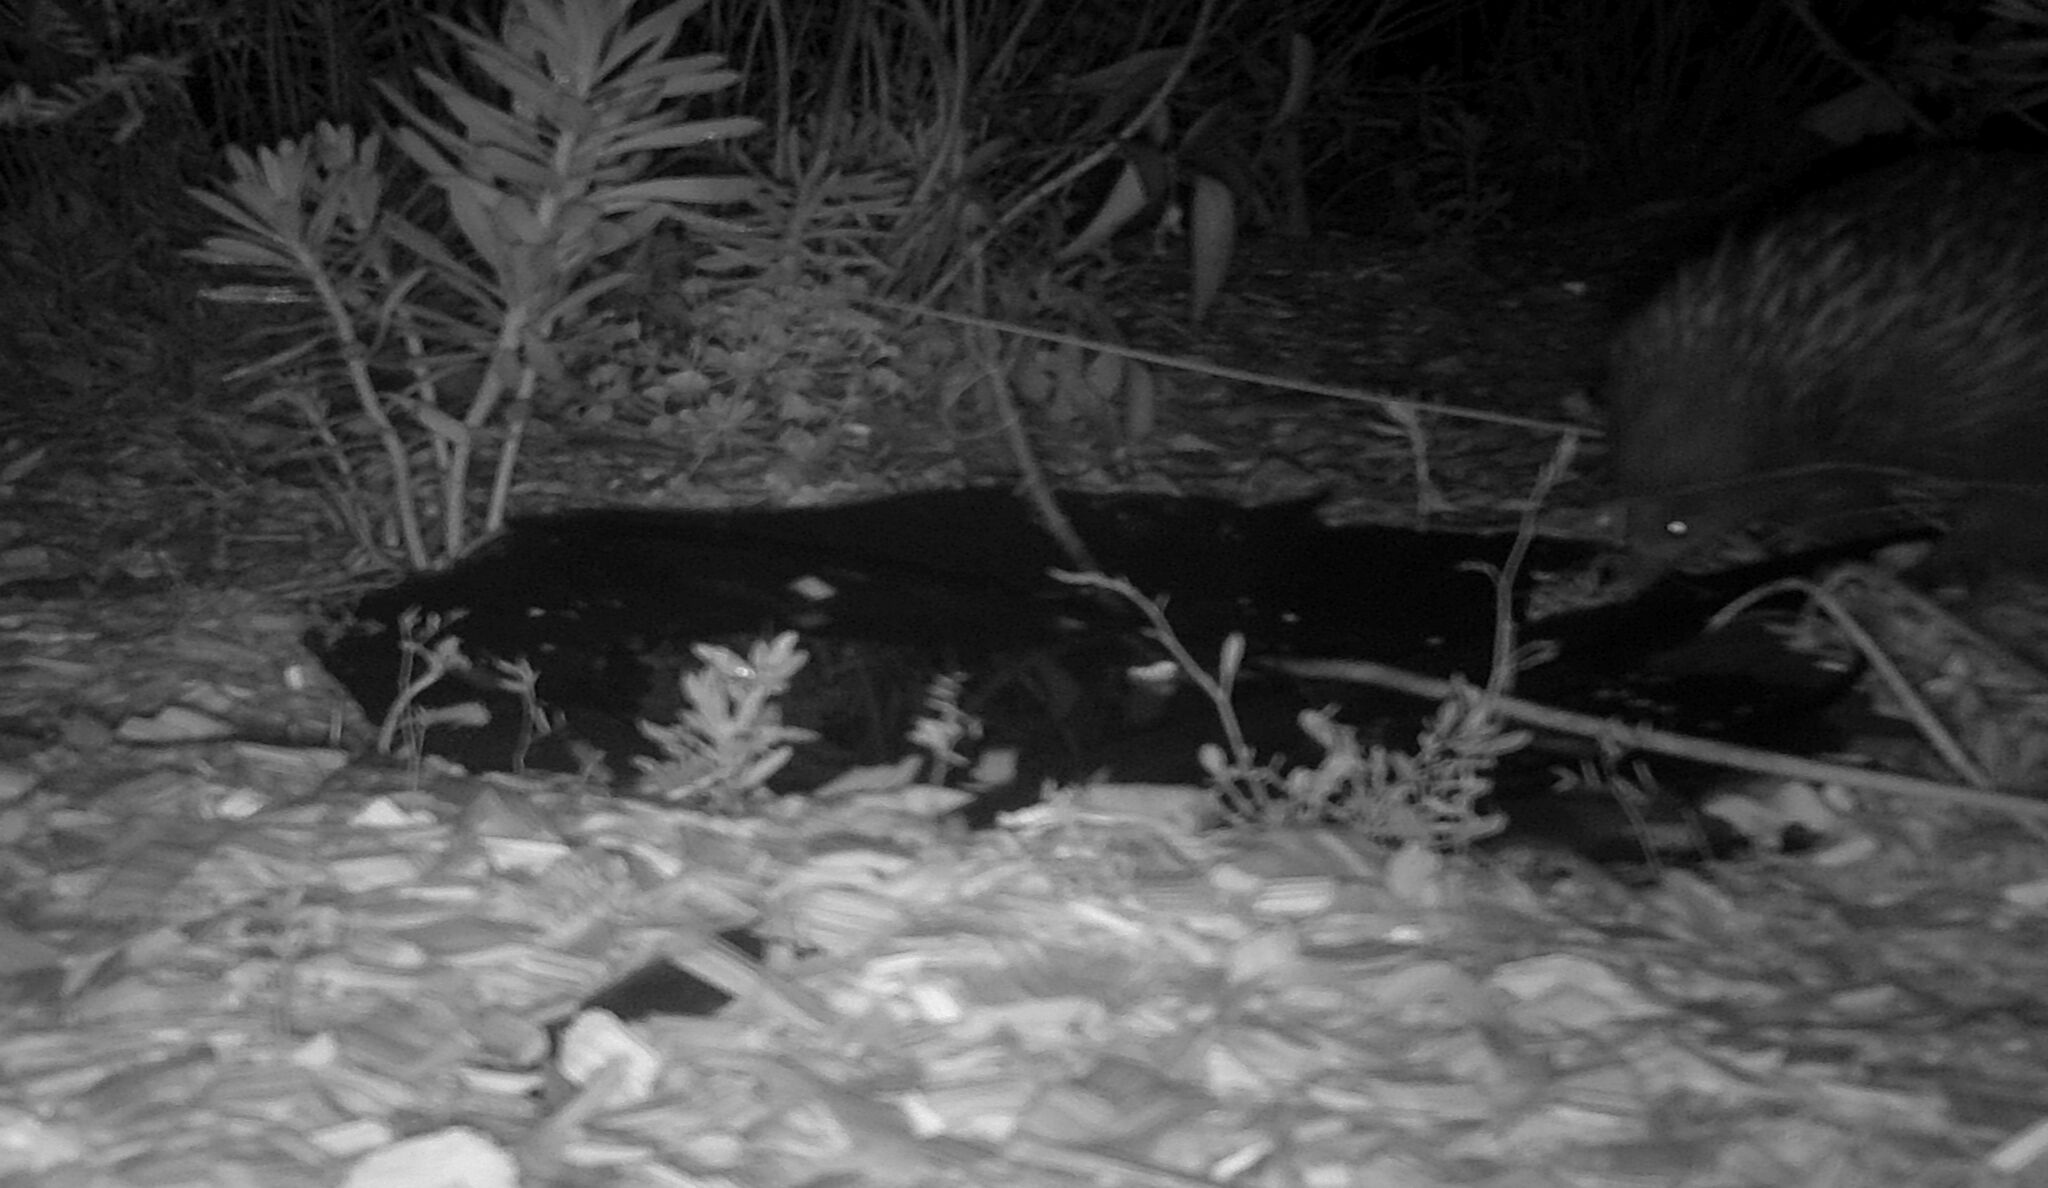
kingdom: Animalia
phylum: Chordata
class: Mammalia
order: Monotremata
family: Tachyglossidae
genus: Tachyglossus
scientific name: Tachyglossus aculeatus
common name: Short-beaked echidna
